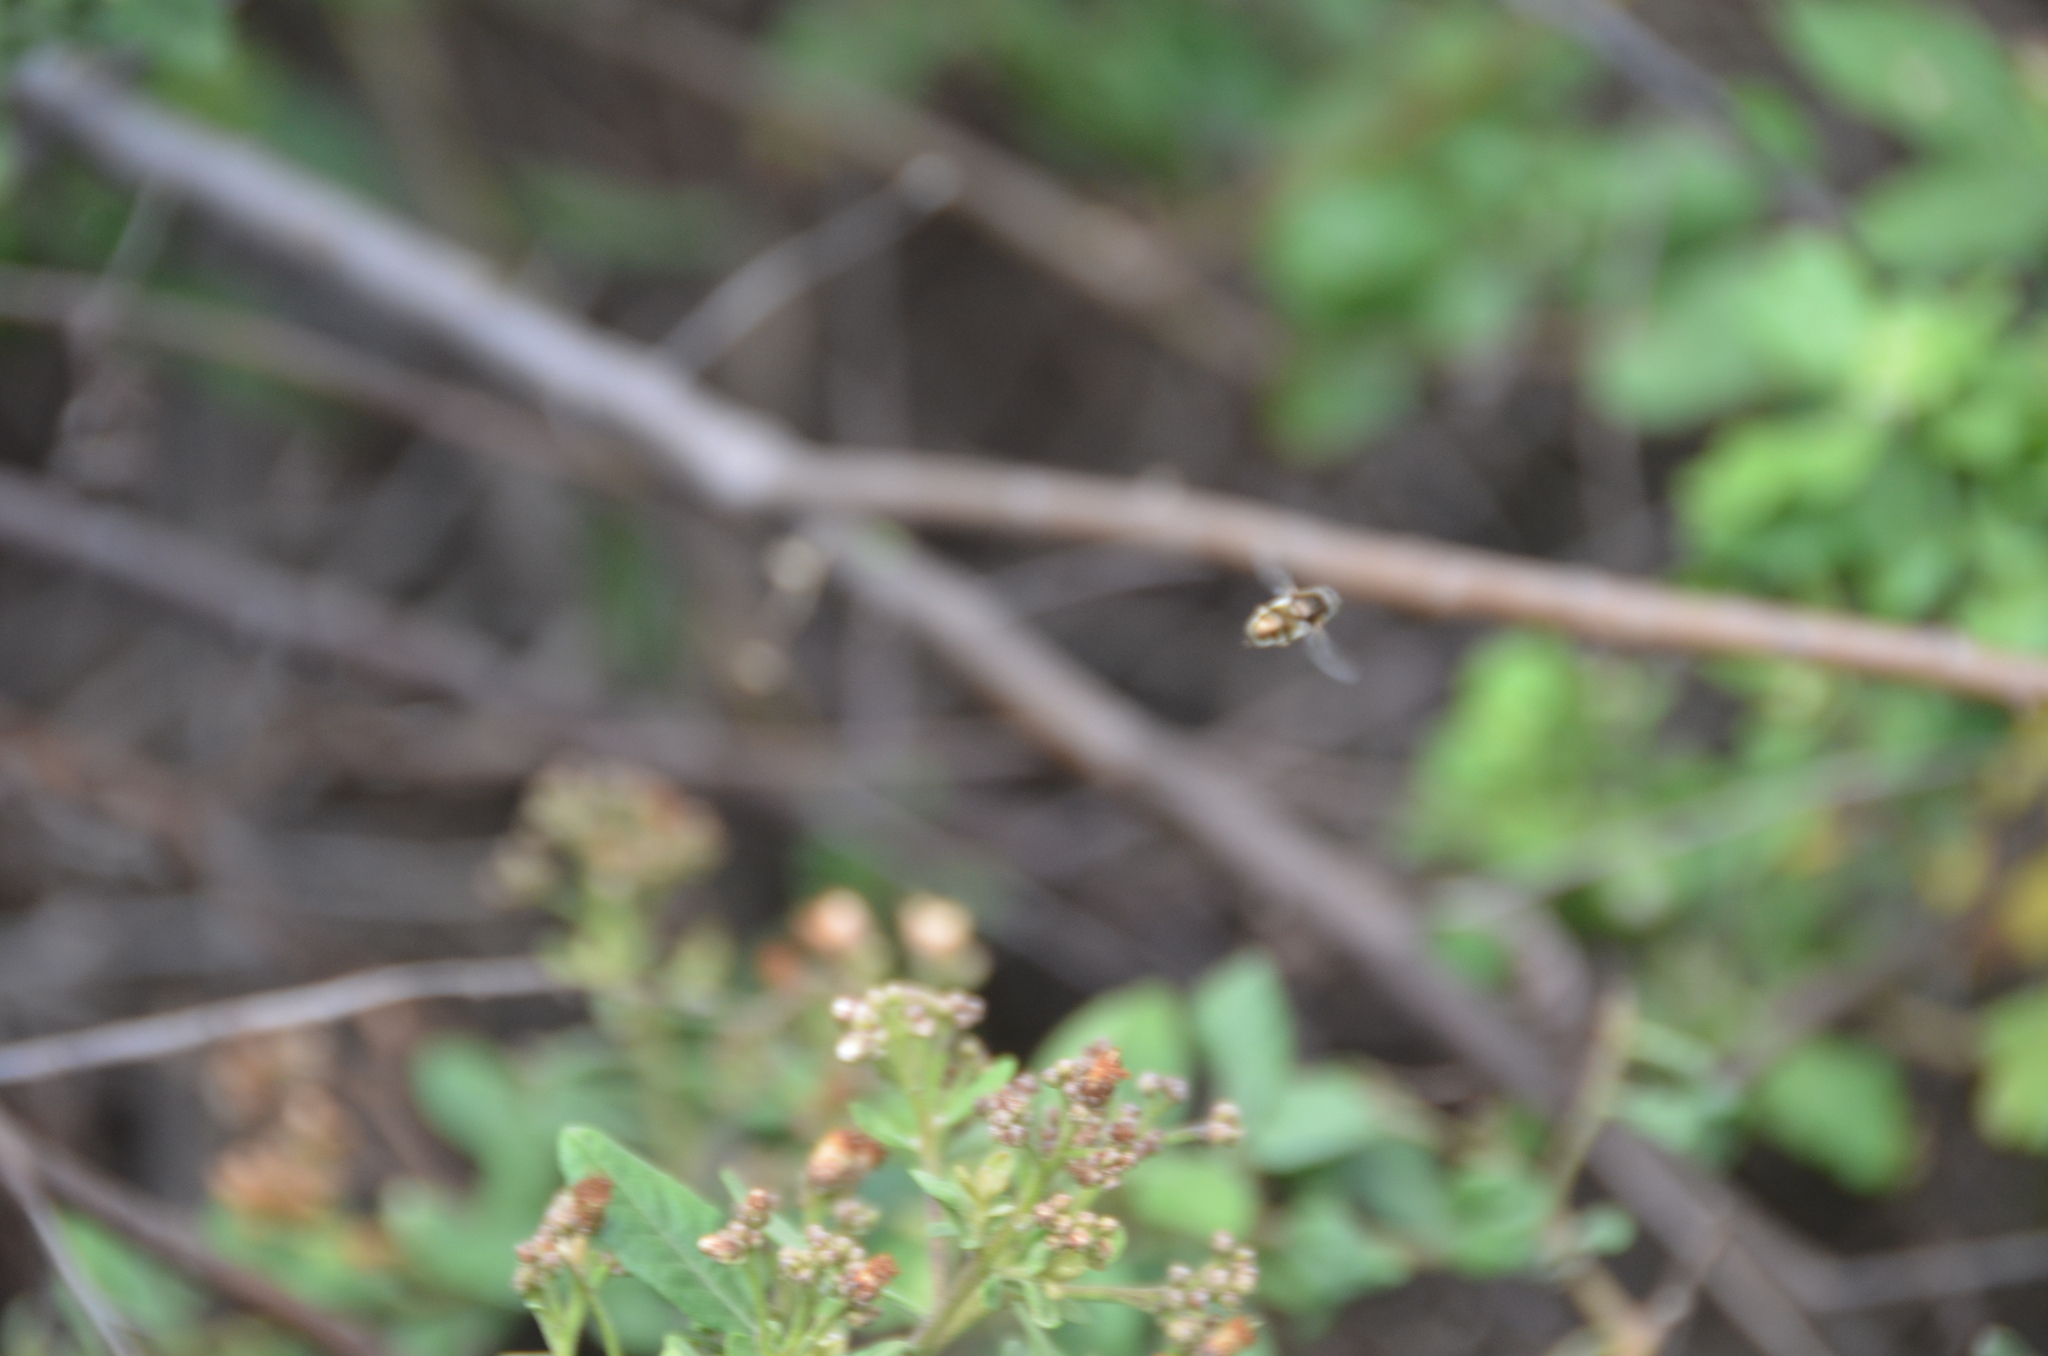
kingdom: Animalia
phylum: Arthropoda
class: Insecta
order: Diptera
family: Syrphidae
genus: Eristalinus
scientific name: Eristalinus aeneus
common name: Syrphid fly
